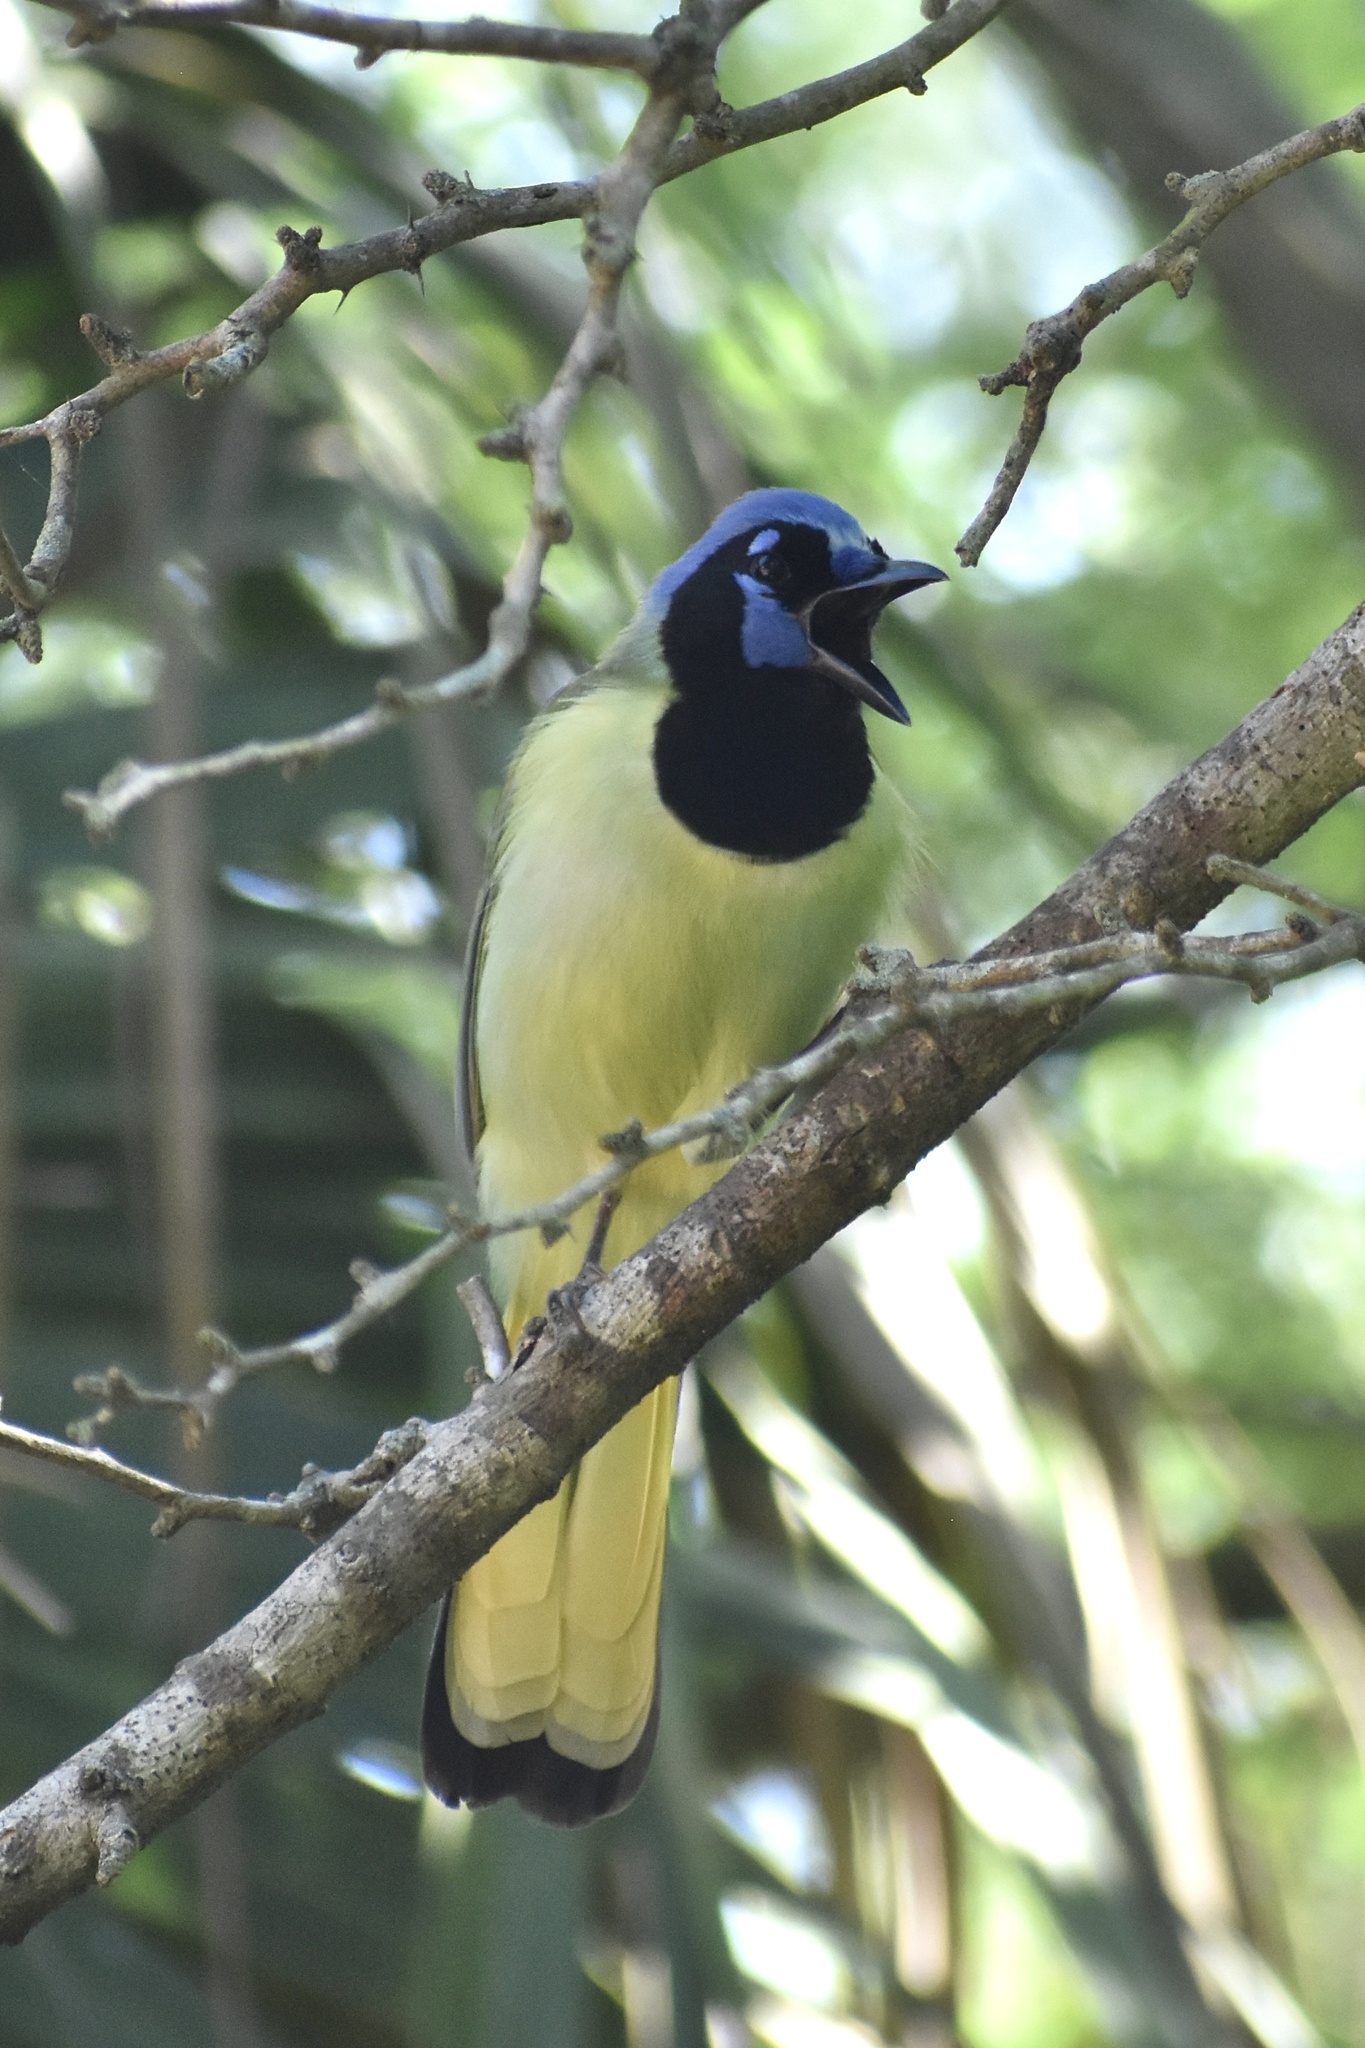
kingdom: Animalia
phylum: Chordata
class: Aves
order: Passeriformes
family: Corvidae
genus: Cyanocorax
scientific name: Cyanocorax yncas
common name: Green jay
